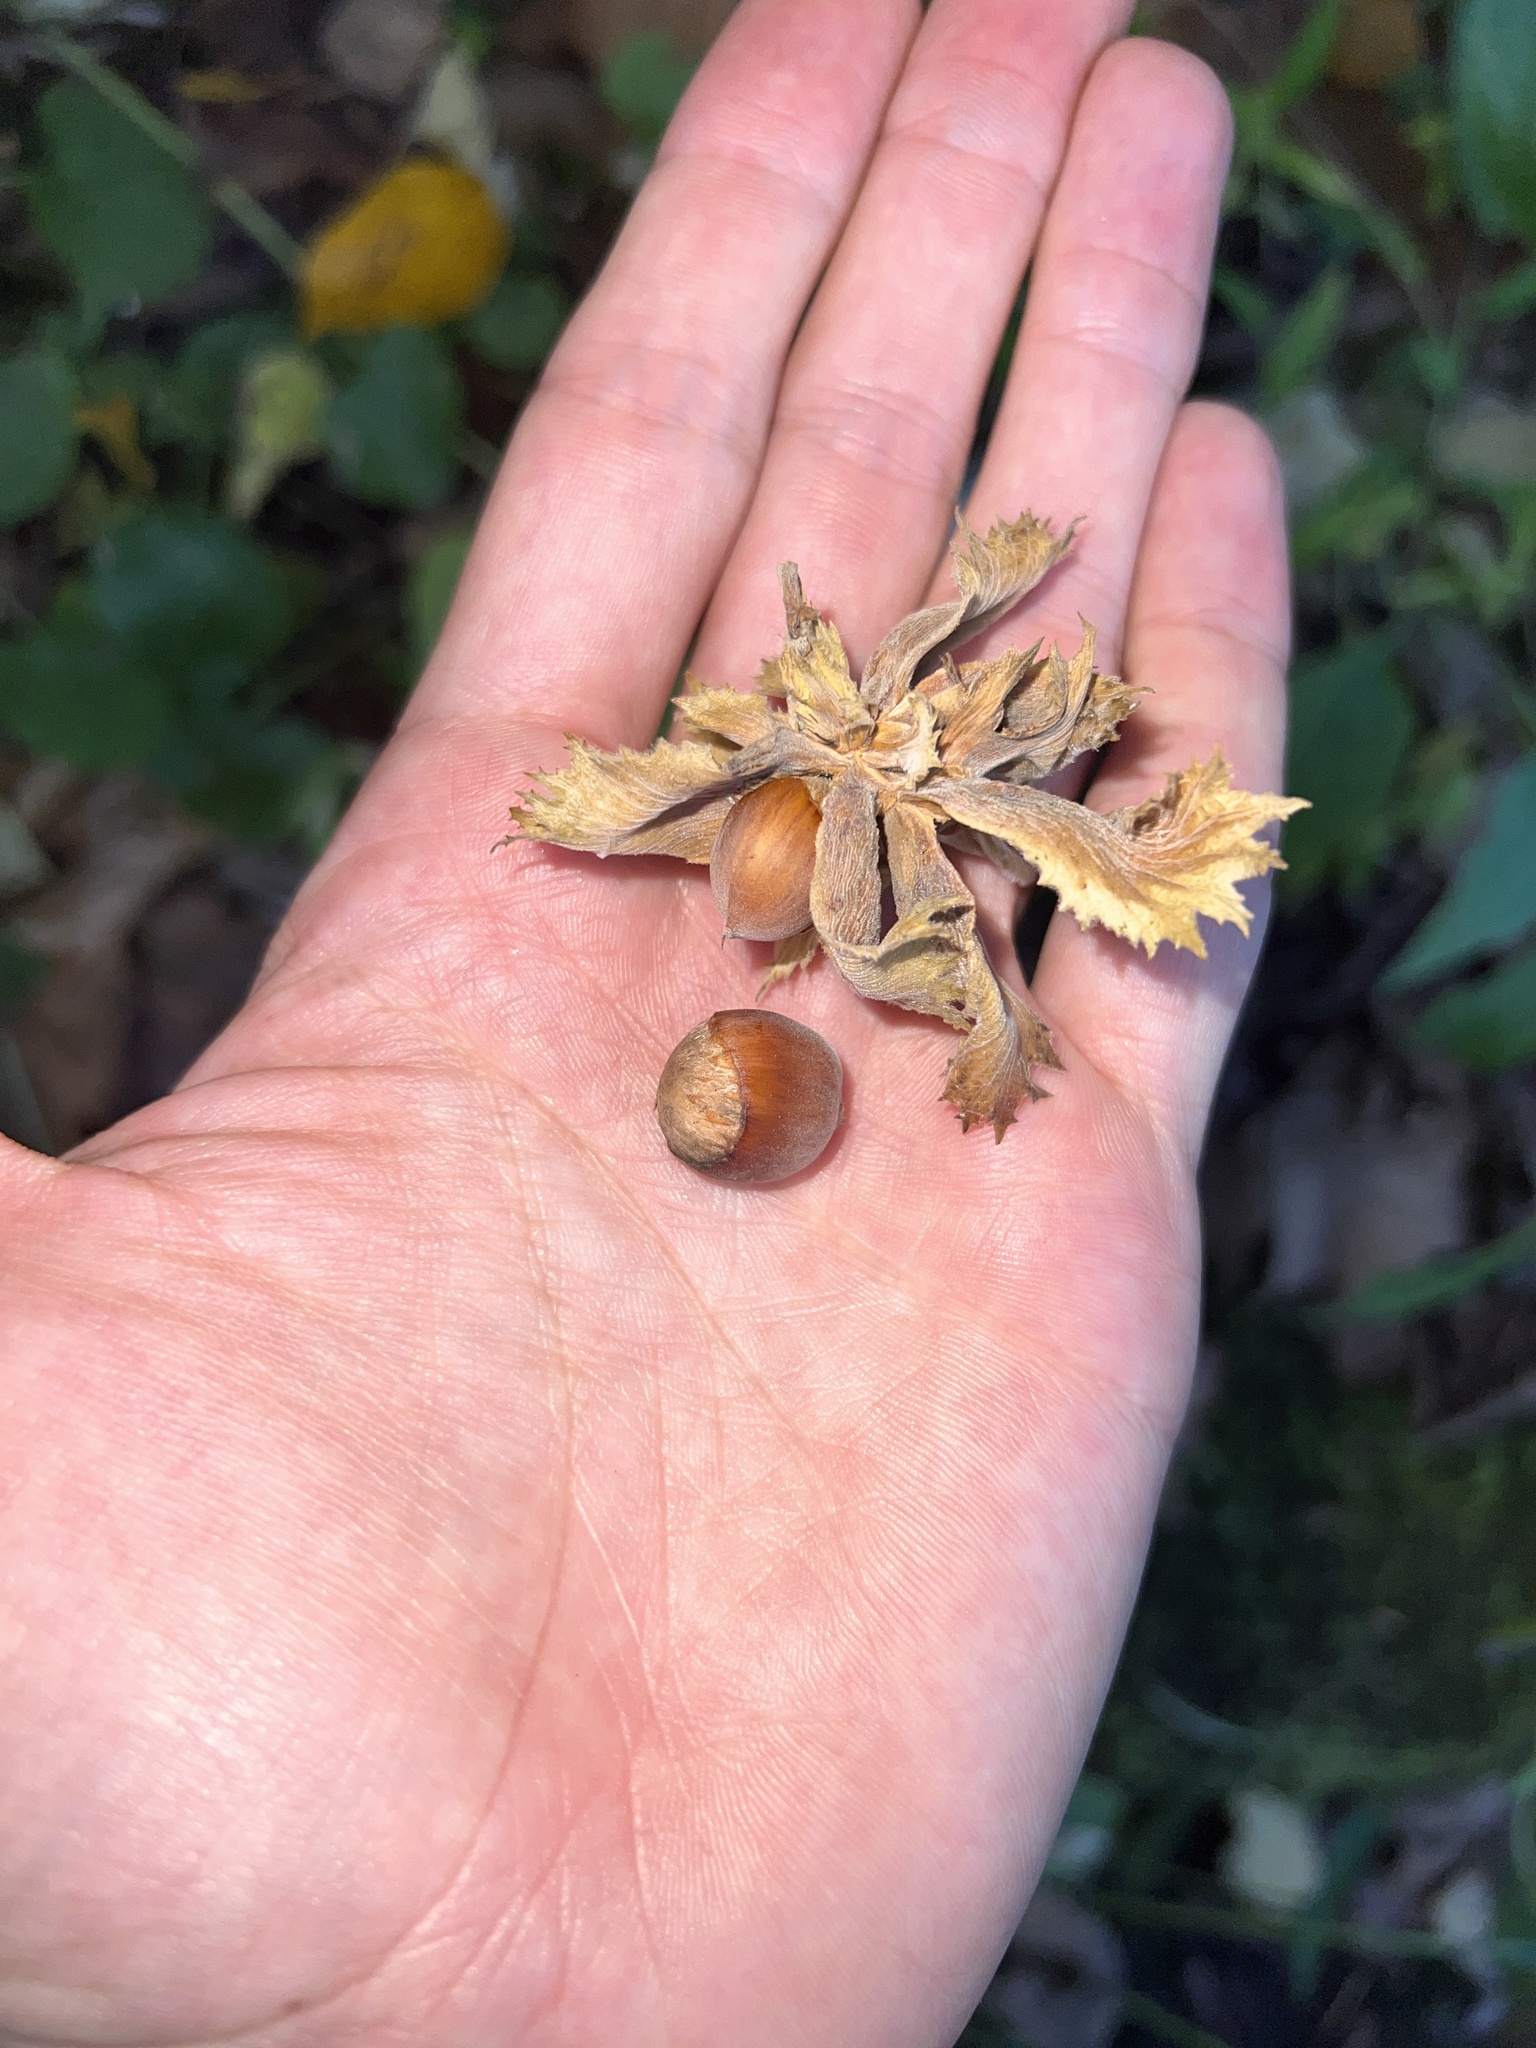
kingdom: Plantae
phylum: Tracheophyta
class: Magnoliopsida
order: Fagales
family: Betulaceae
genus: Corylus
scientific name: Corylus americana
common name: American hazel
